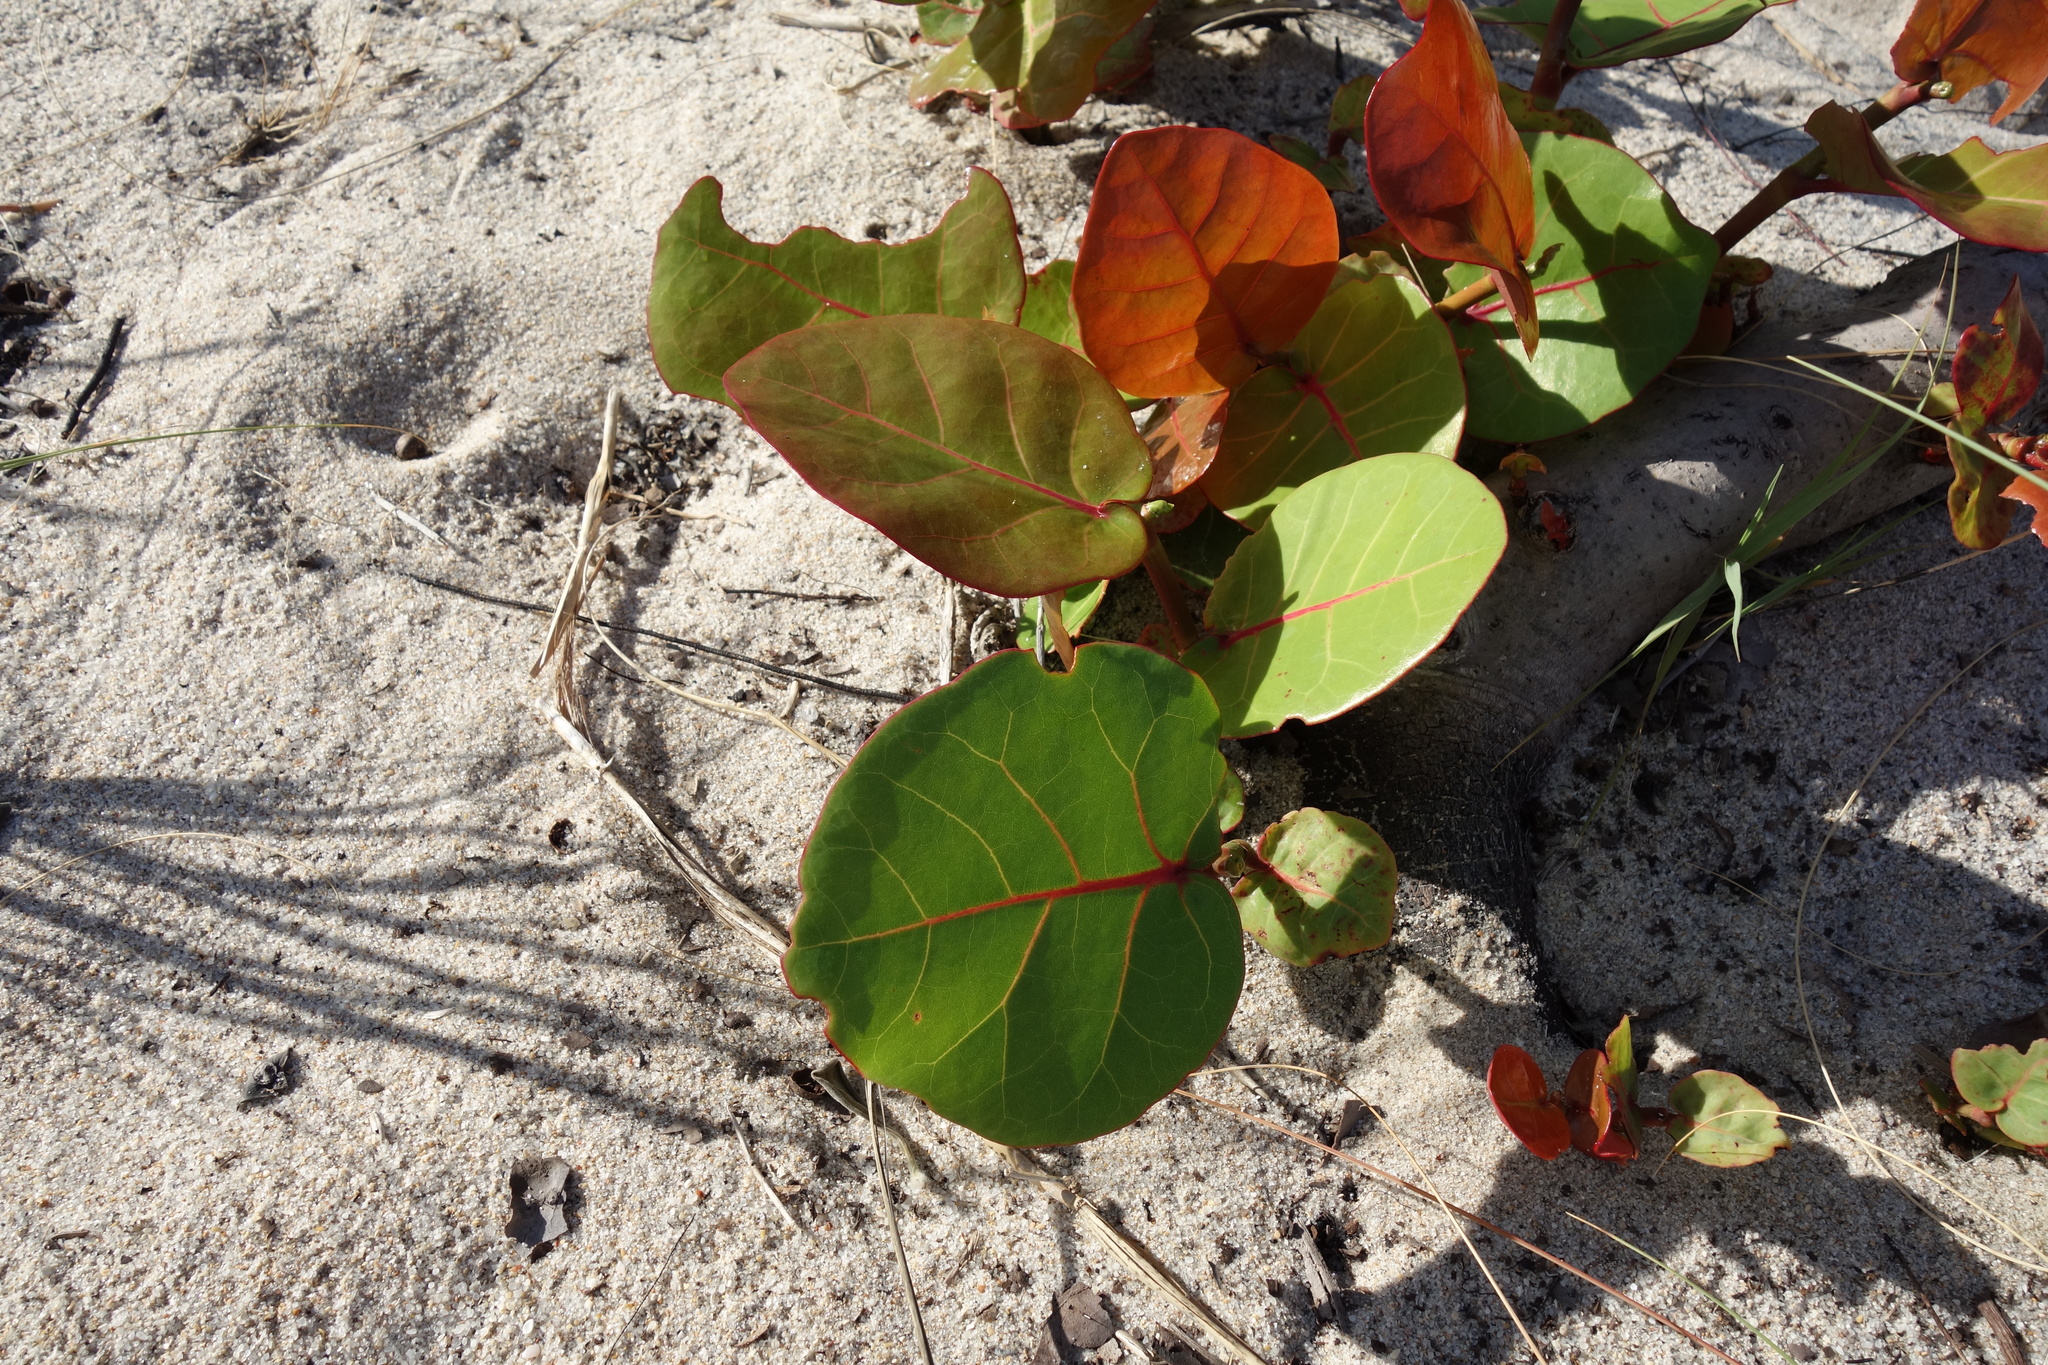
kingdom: Plantae
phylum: Tracheophyta
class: Magnoliopsida
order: Caryophyllales
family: Polygonaceae
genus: Coccoloba
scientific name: Coccoloba uvifera
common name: Seagrape
